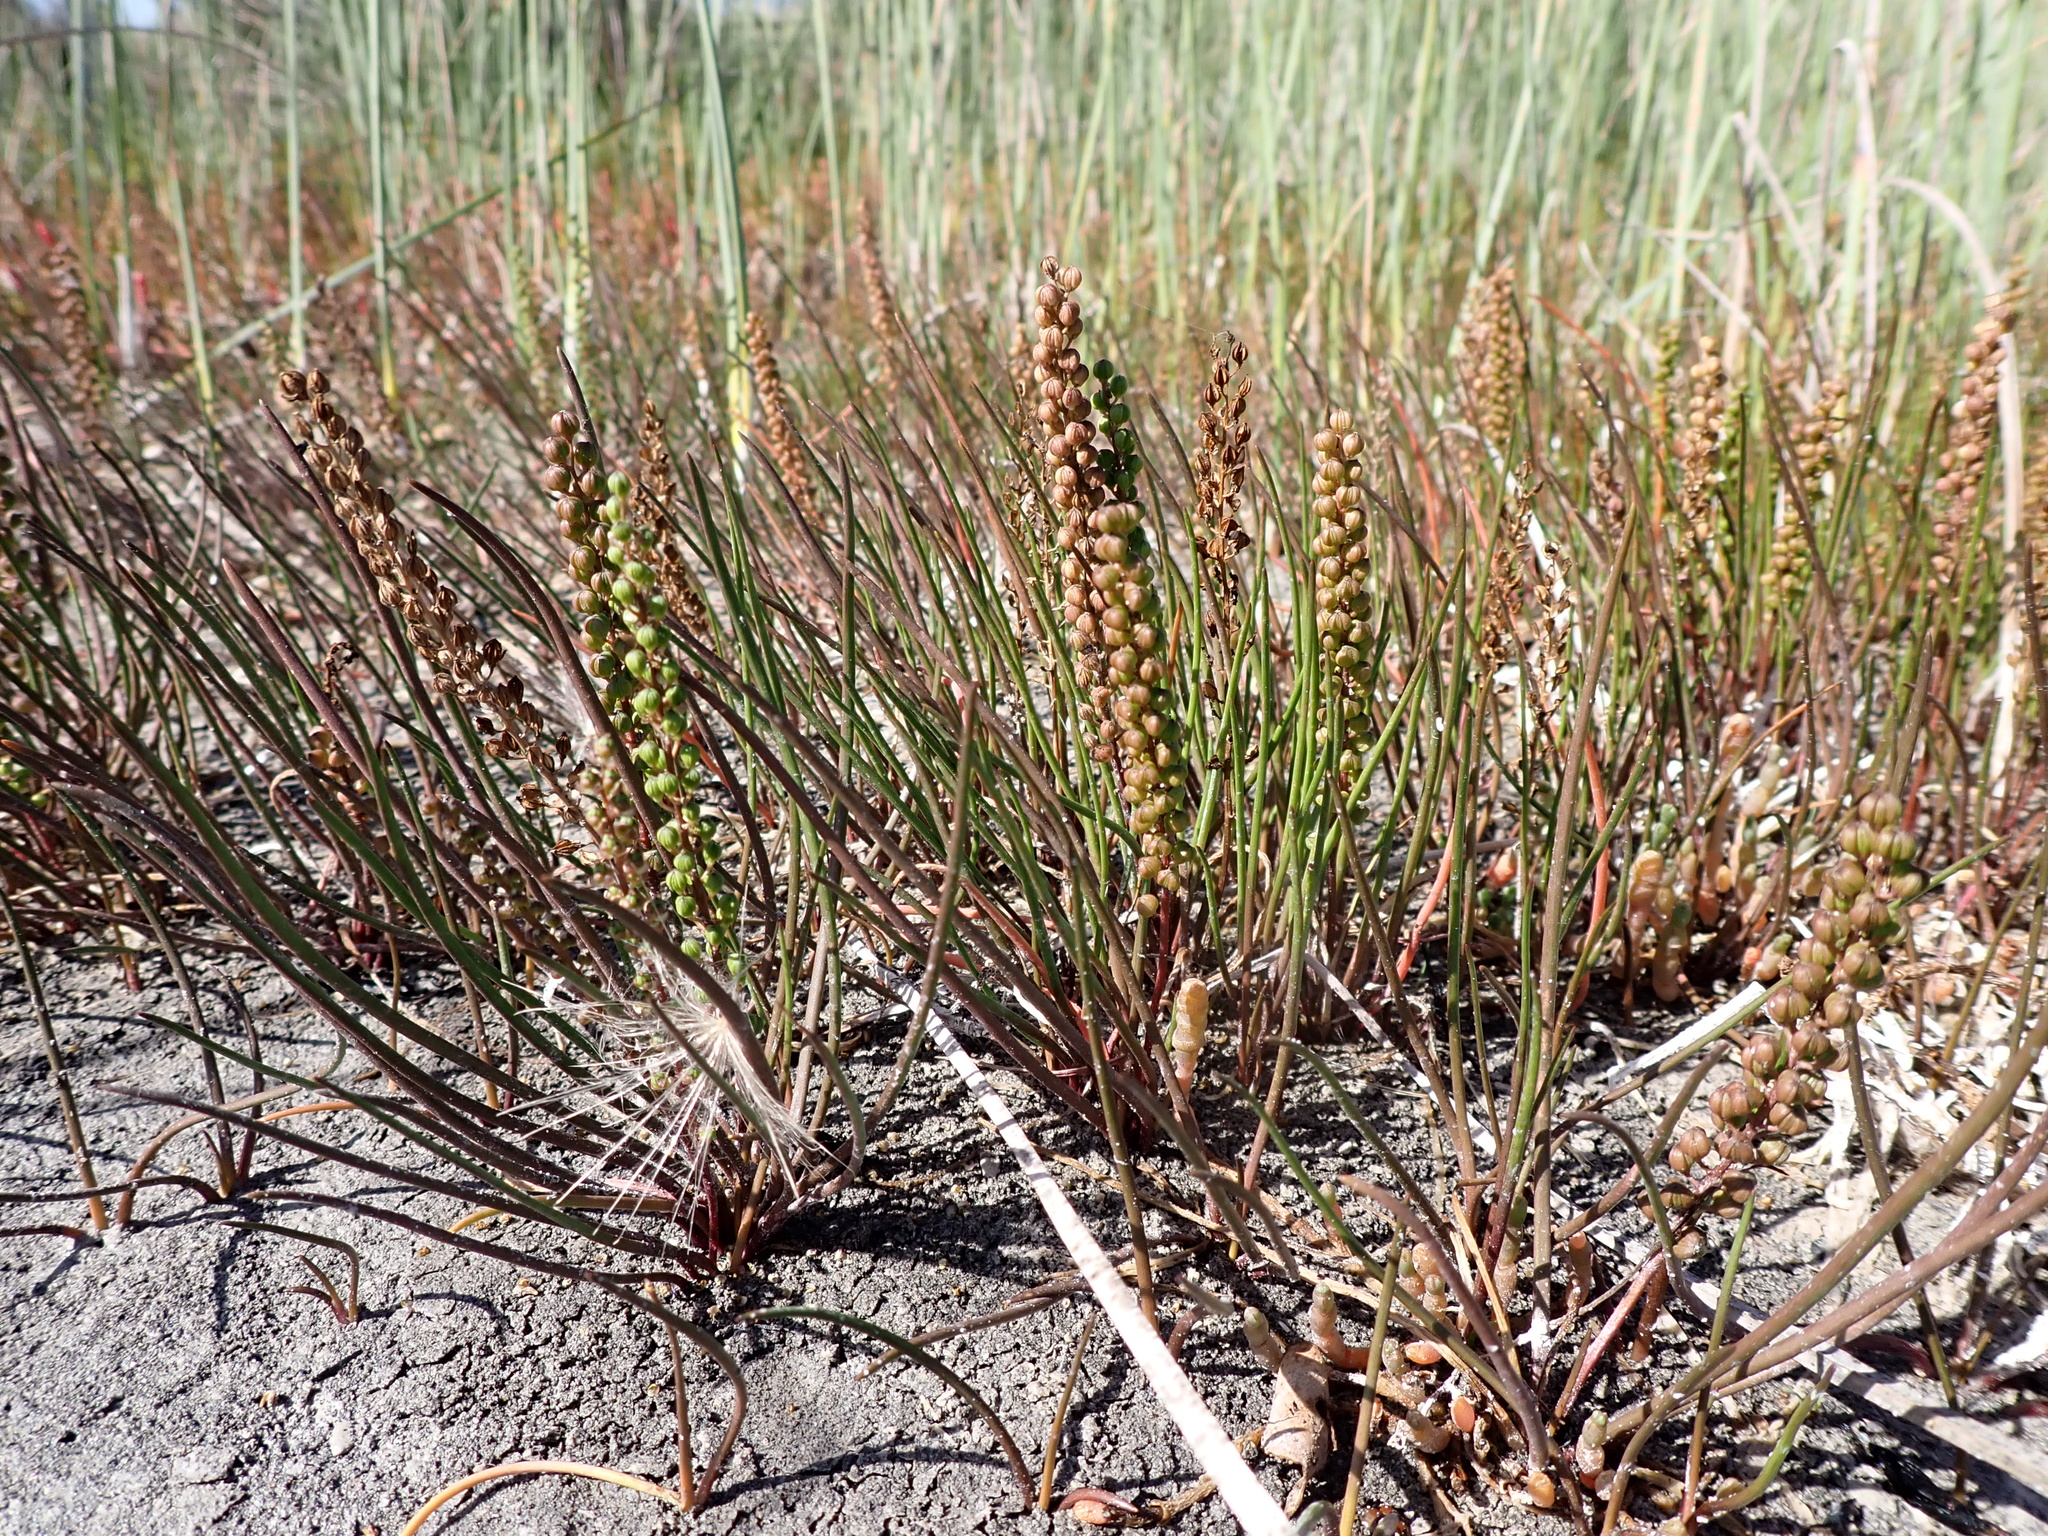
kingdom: Plantae
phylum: Tracheophyta
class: Liliopsida
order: Alismatales
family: Juncaginaceae
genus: Triglochin
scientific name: Triglochin striata
